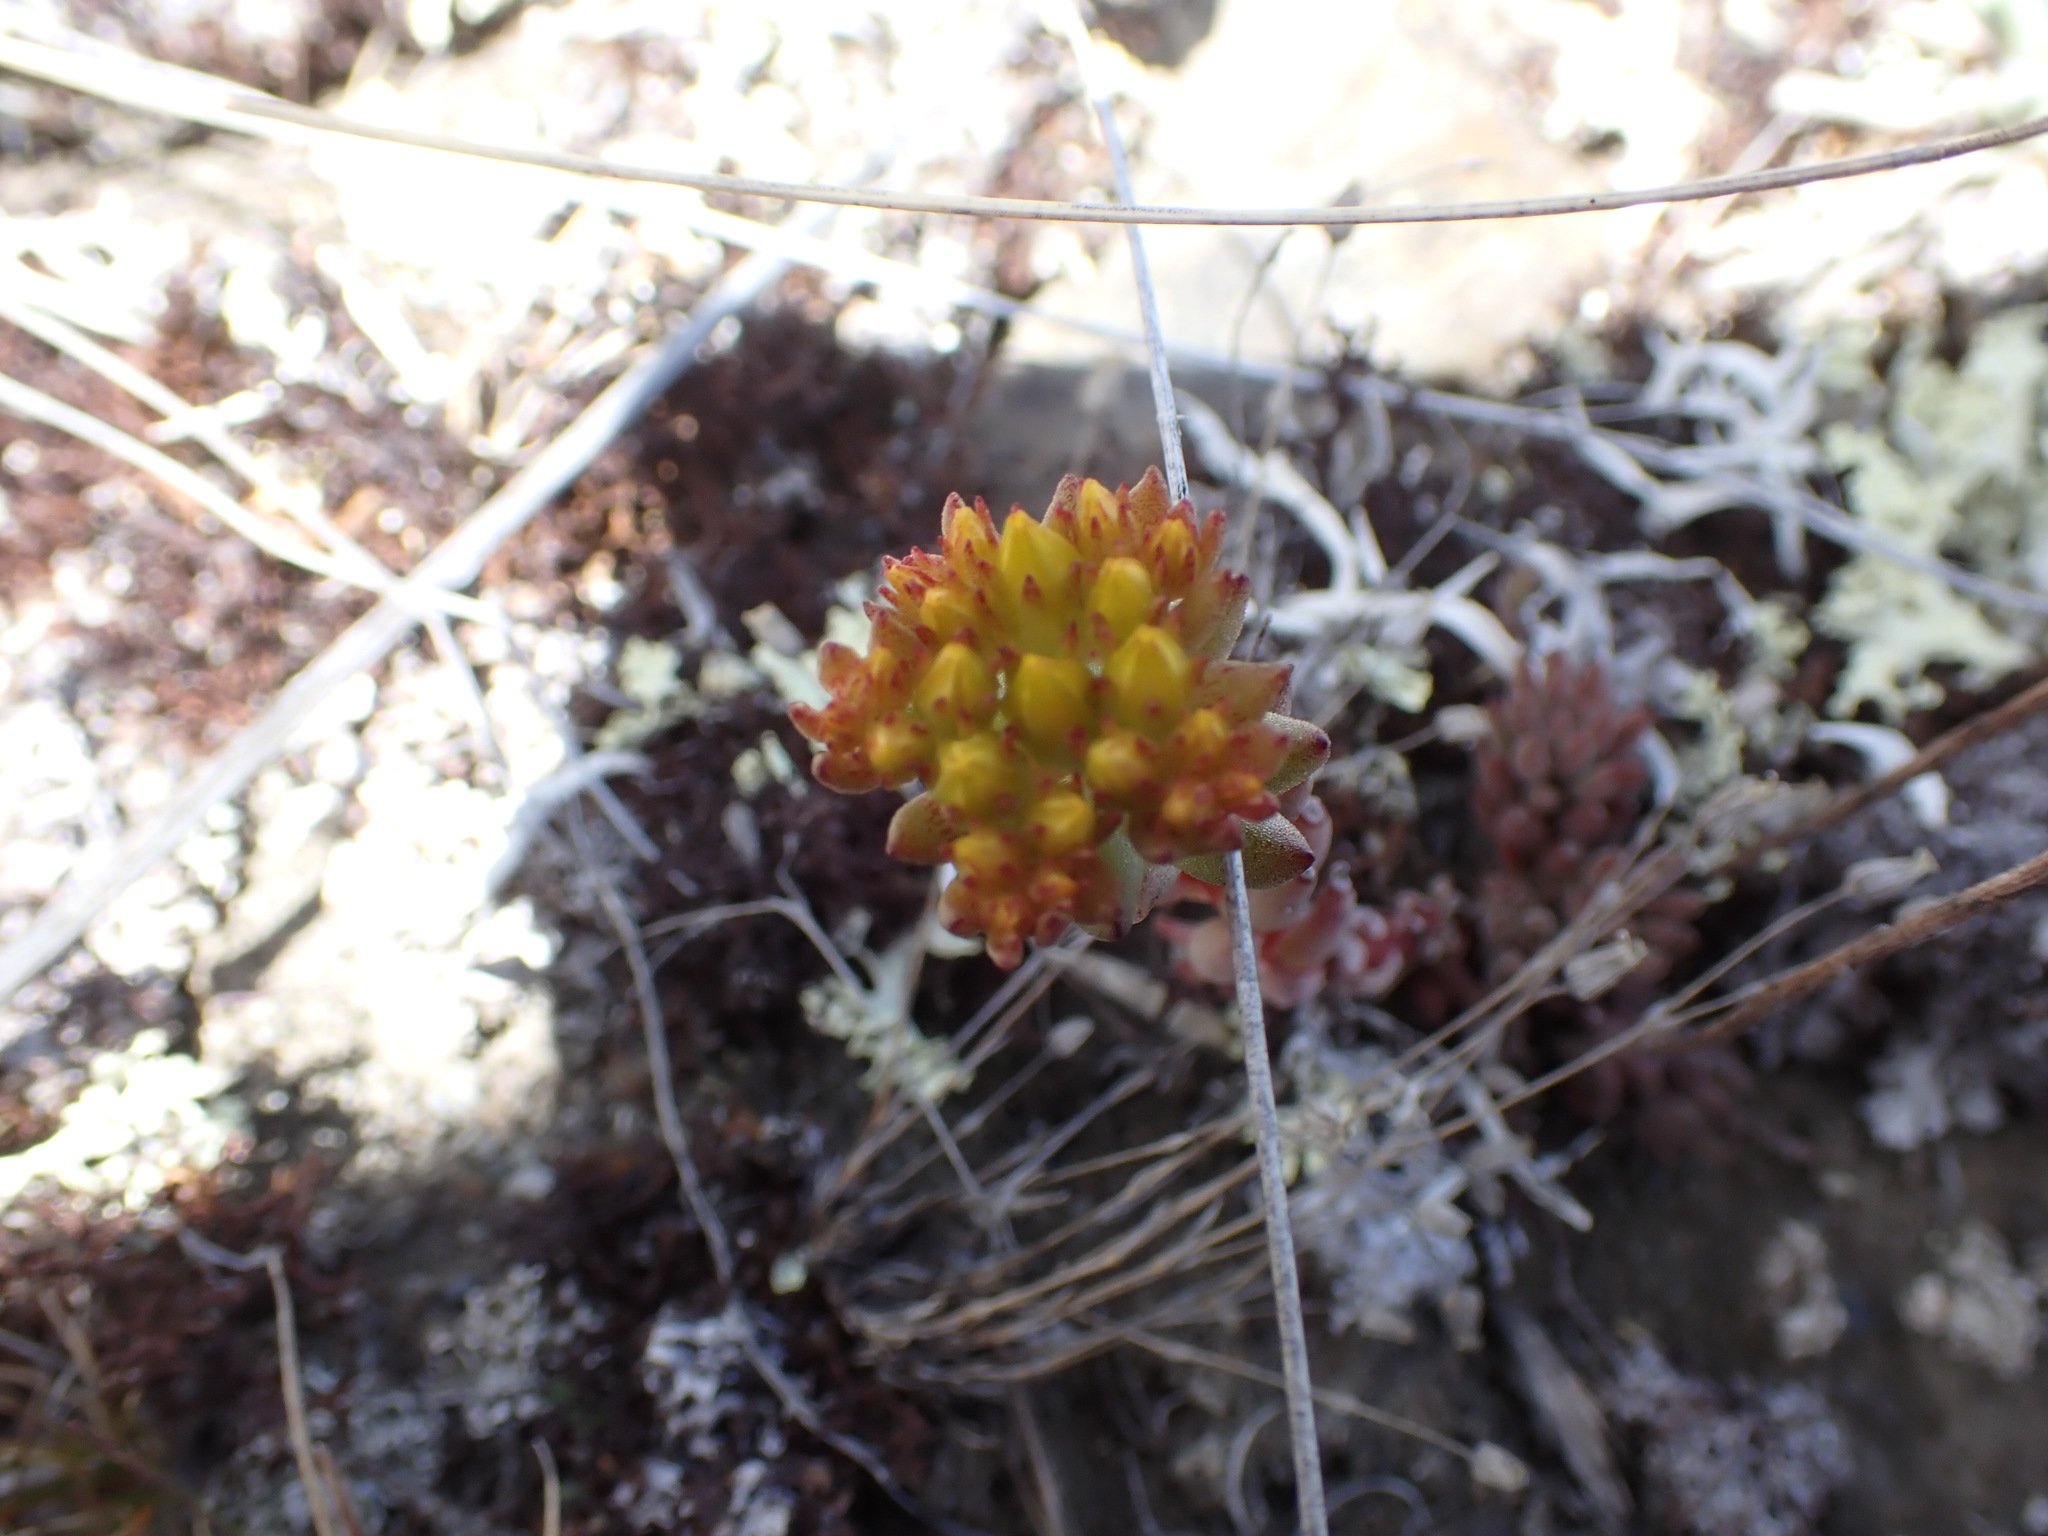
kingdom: Plantae
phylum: Tracheophyta
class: Magnoliopsida
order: Saxifragales
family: Crassulaceae
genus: Sedum
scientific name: Sedum lanceolatum
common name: Common stonecrop
